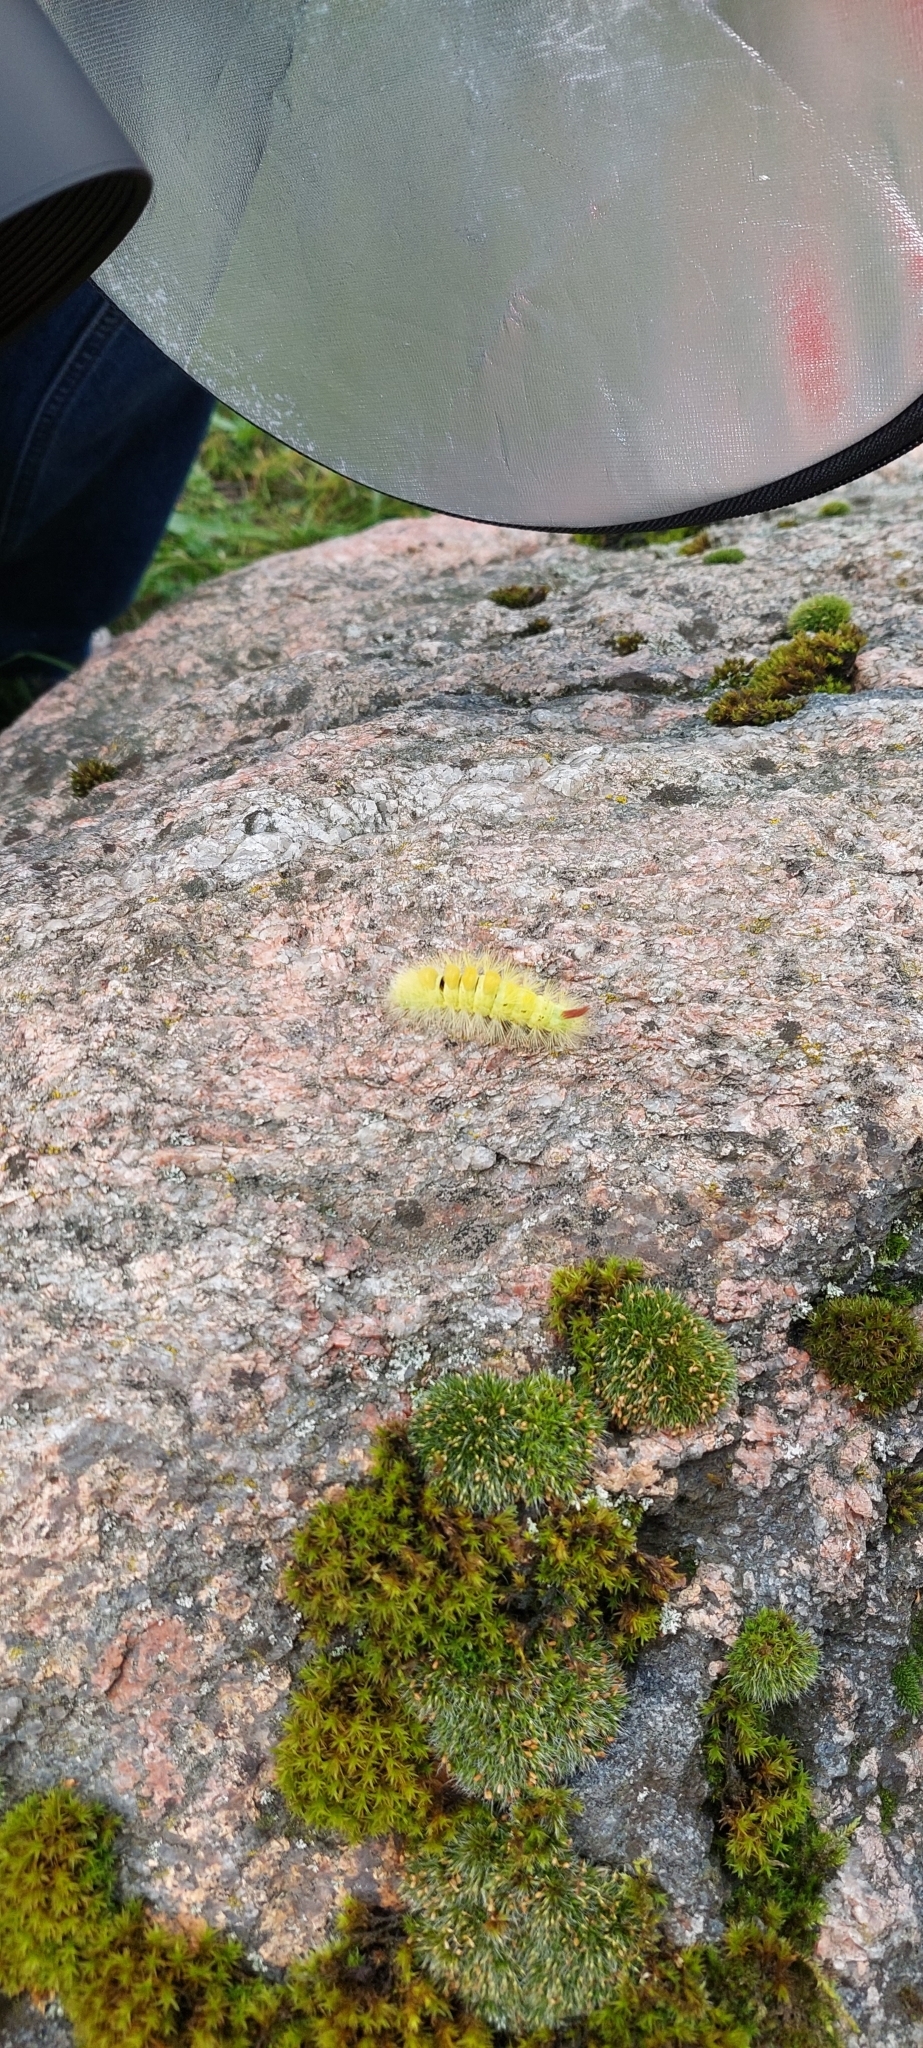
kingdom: Animalia
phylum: Arthropoda
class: Insecta
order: Lepidoptera
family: Erebidae
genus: Calliteara
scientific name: Calliteara pudibunda
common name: Pale tussock
